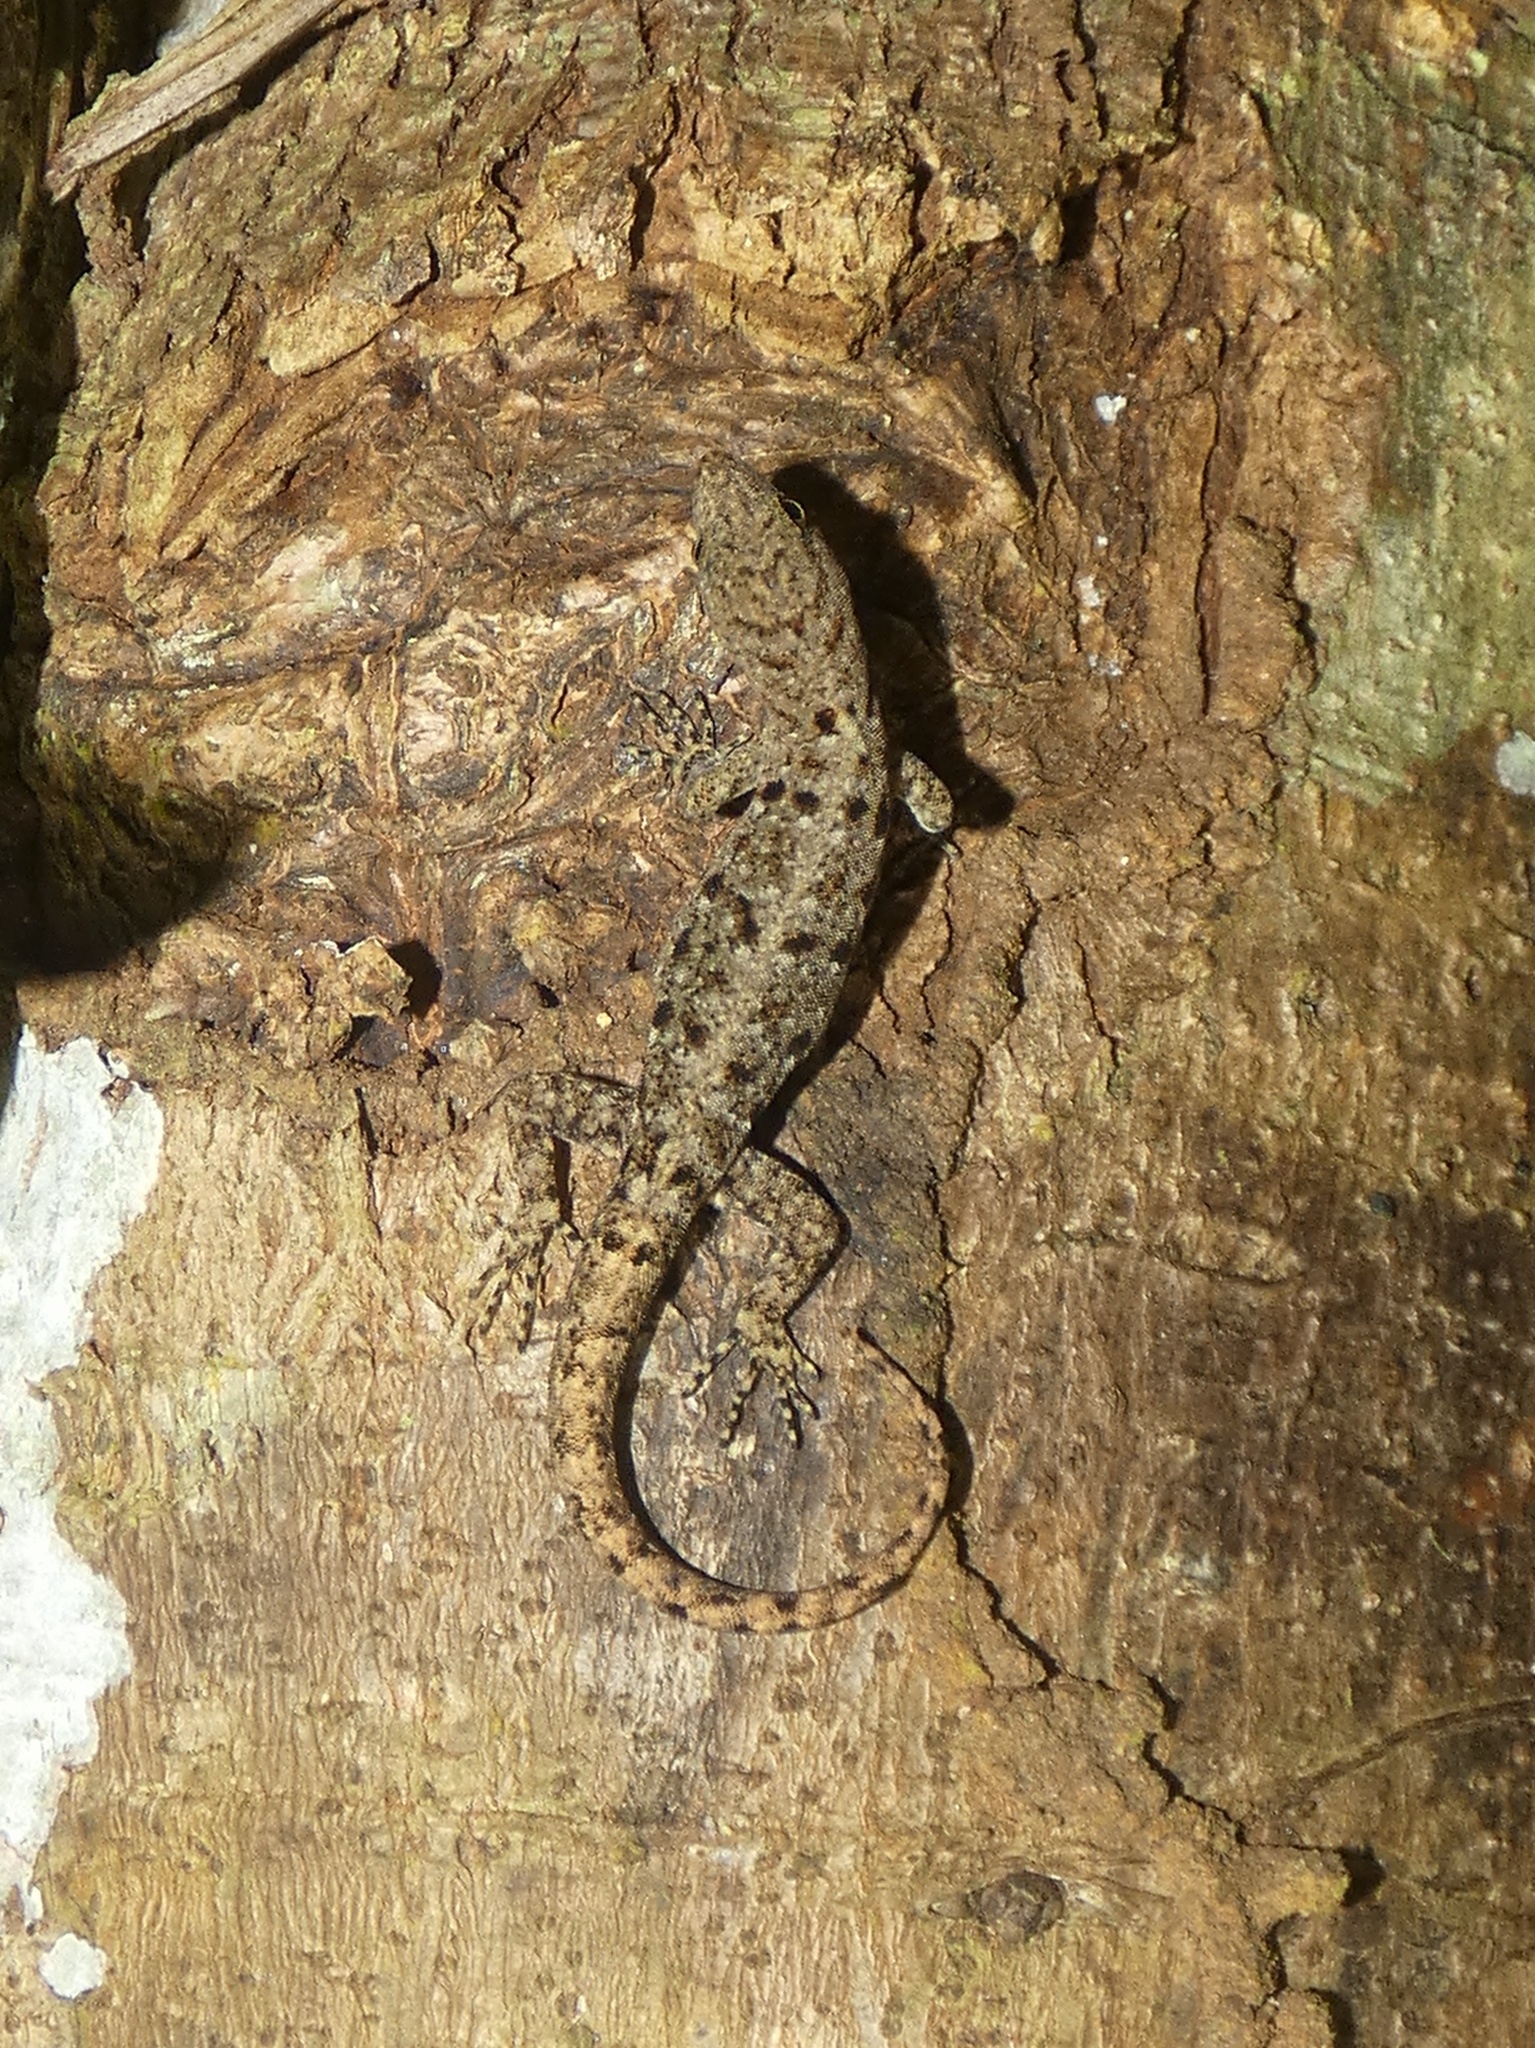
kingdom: Animalia
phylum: Chordata
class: Squamata
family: Sphaerodactylidae
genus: Gonatodes
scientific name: Gonatodes albogularis
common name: Yellow-headed gecko
